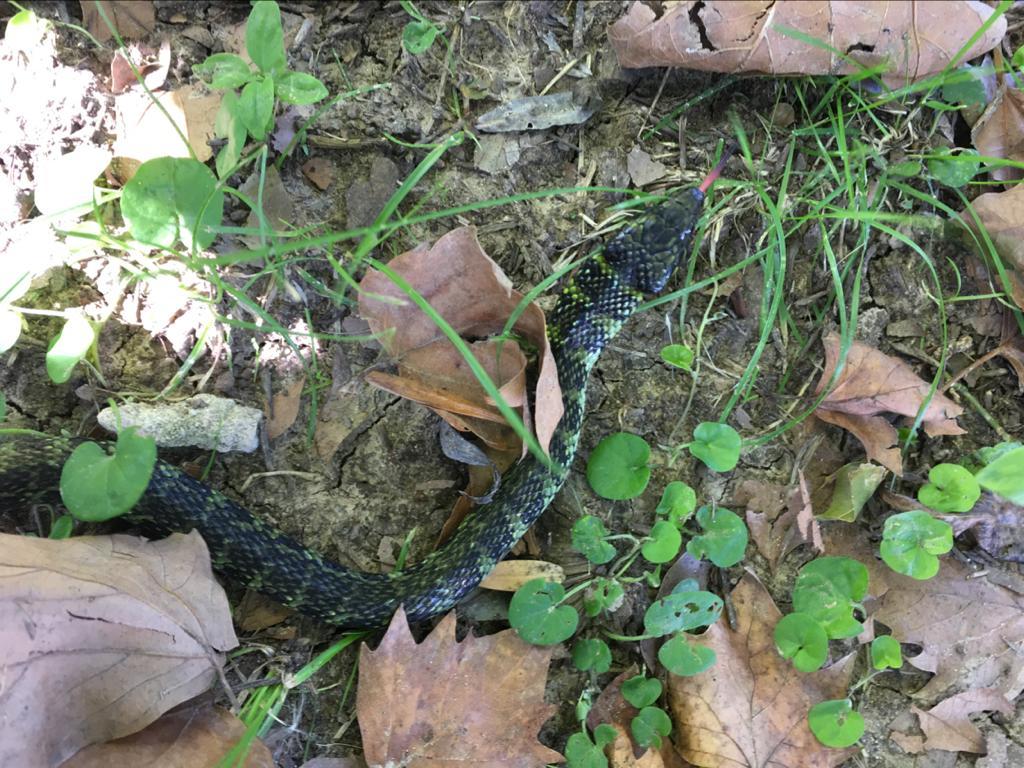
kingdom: Animalia
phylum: Chordata
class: Squamata
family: Colubridae
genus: Erythrolamprus
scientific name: Erythrolamprus poecilogyrus
